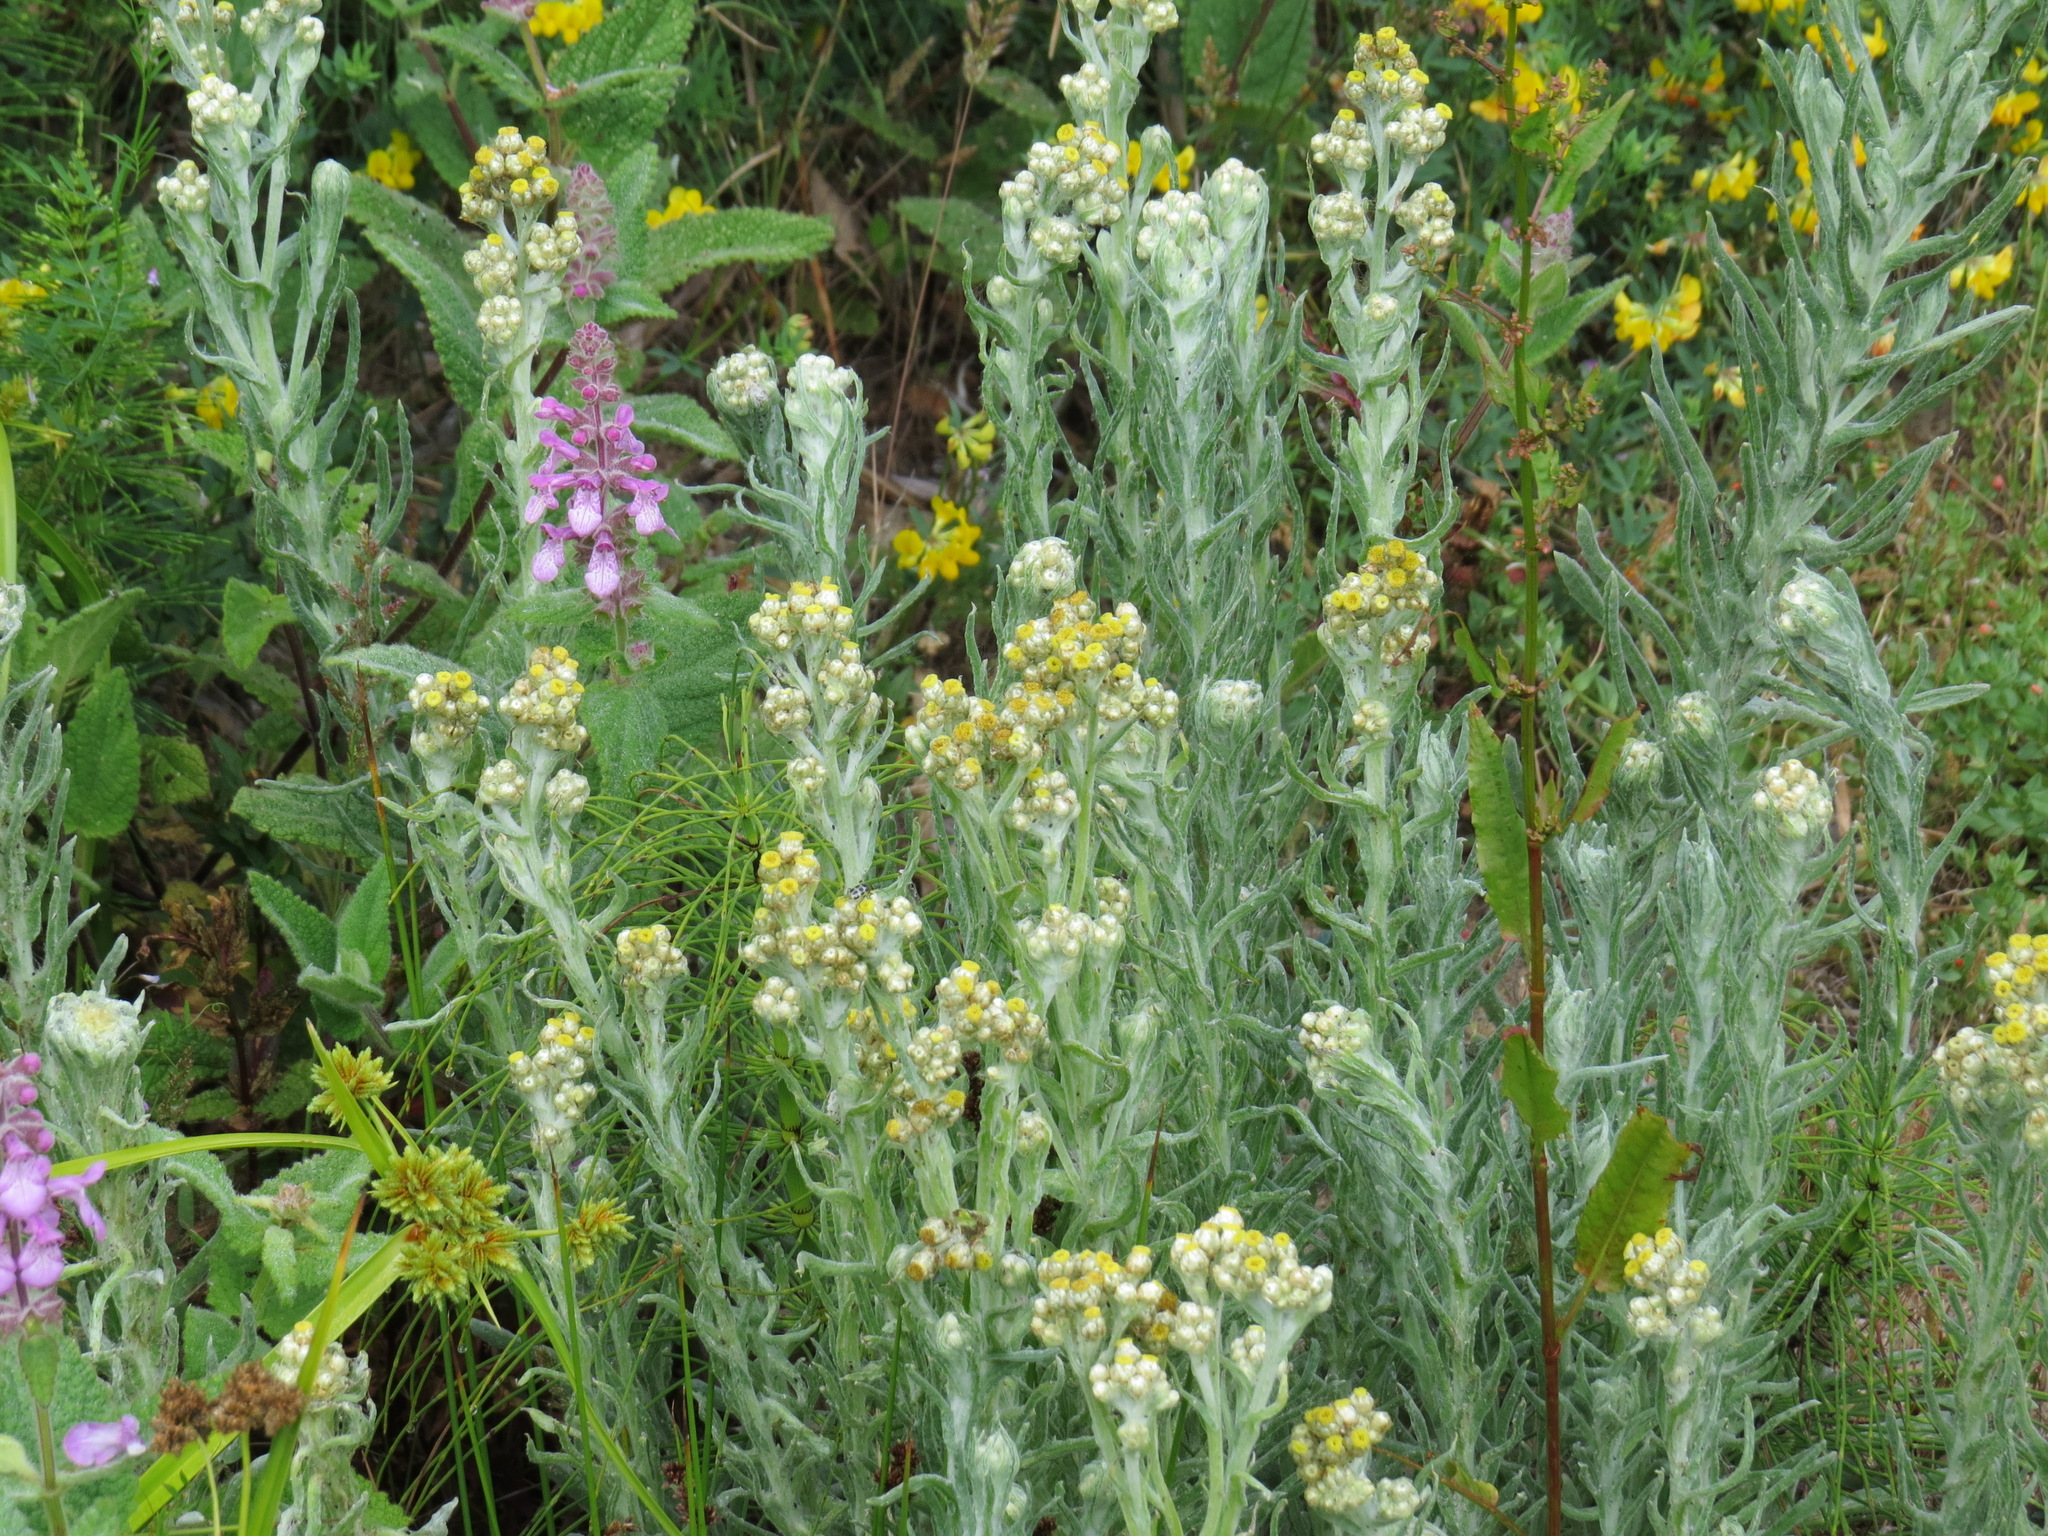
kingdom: Plantae
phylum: Tracheophyta
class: Magnoliopsida
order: Asterales
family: Asteraceae
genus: Pseudognaphalium
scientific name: Pseudognaphalium stramineum
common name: Cotton-batting-plant
